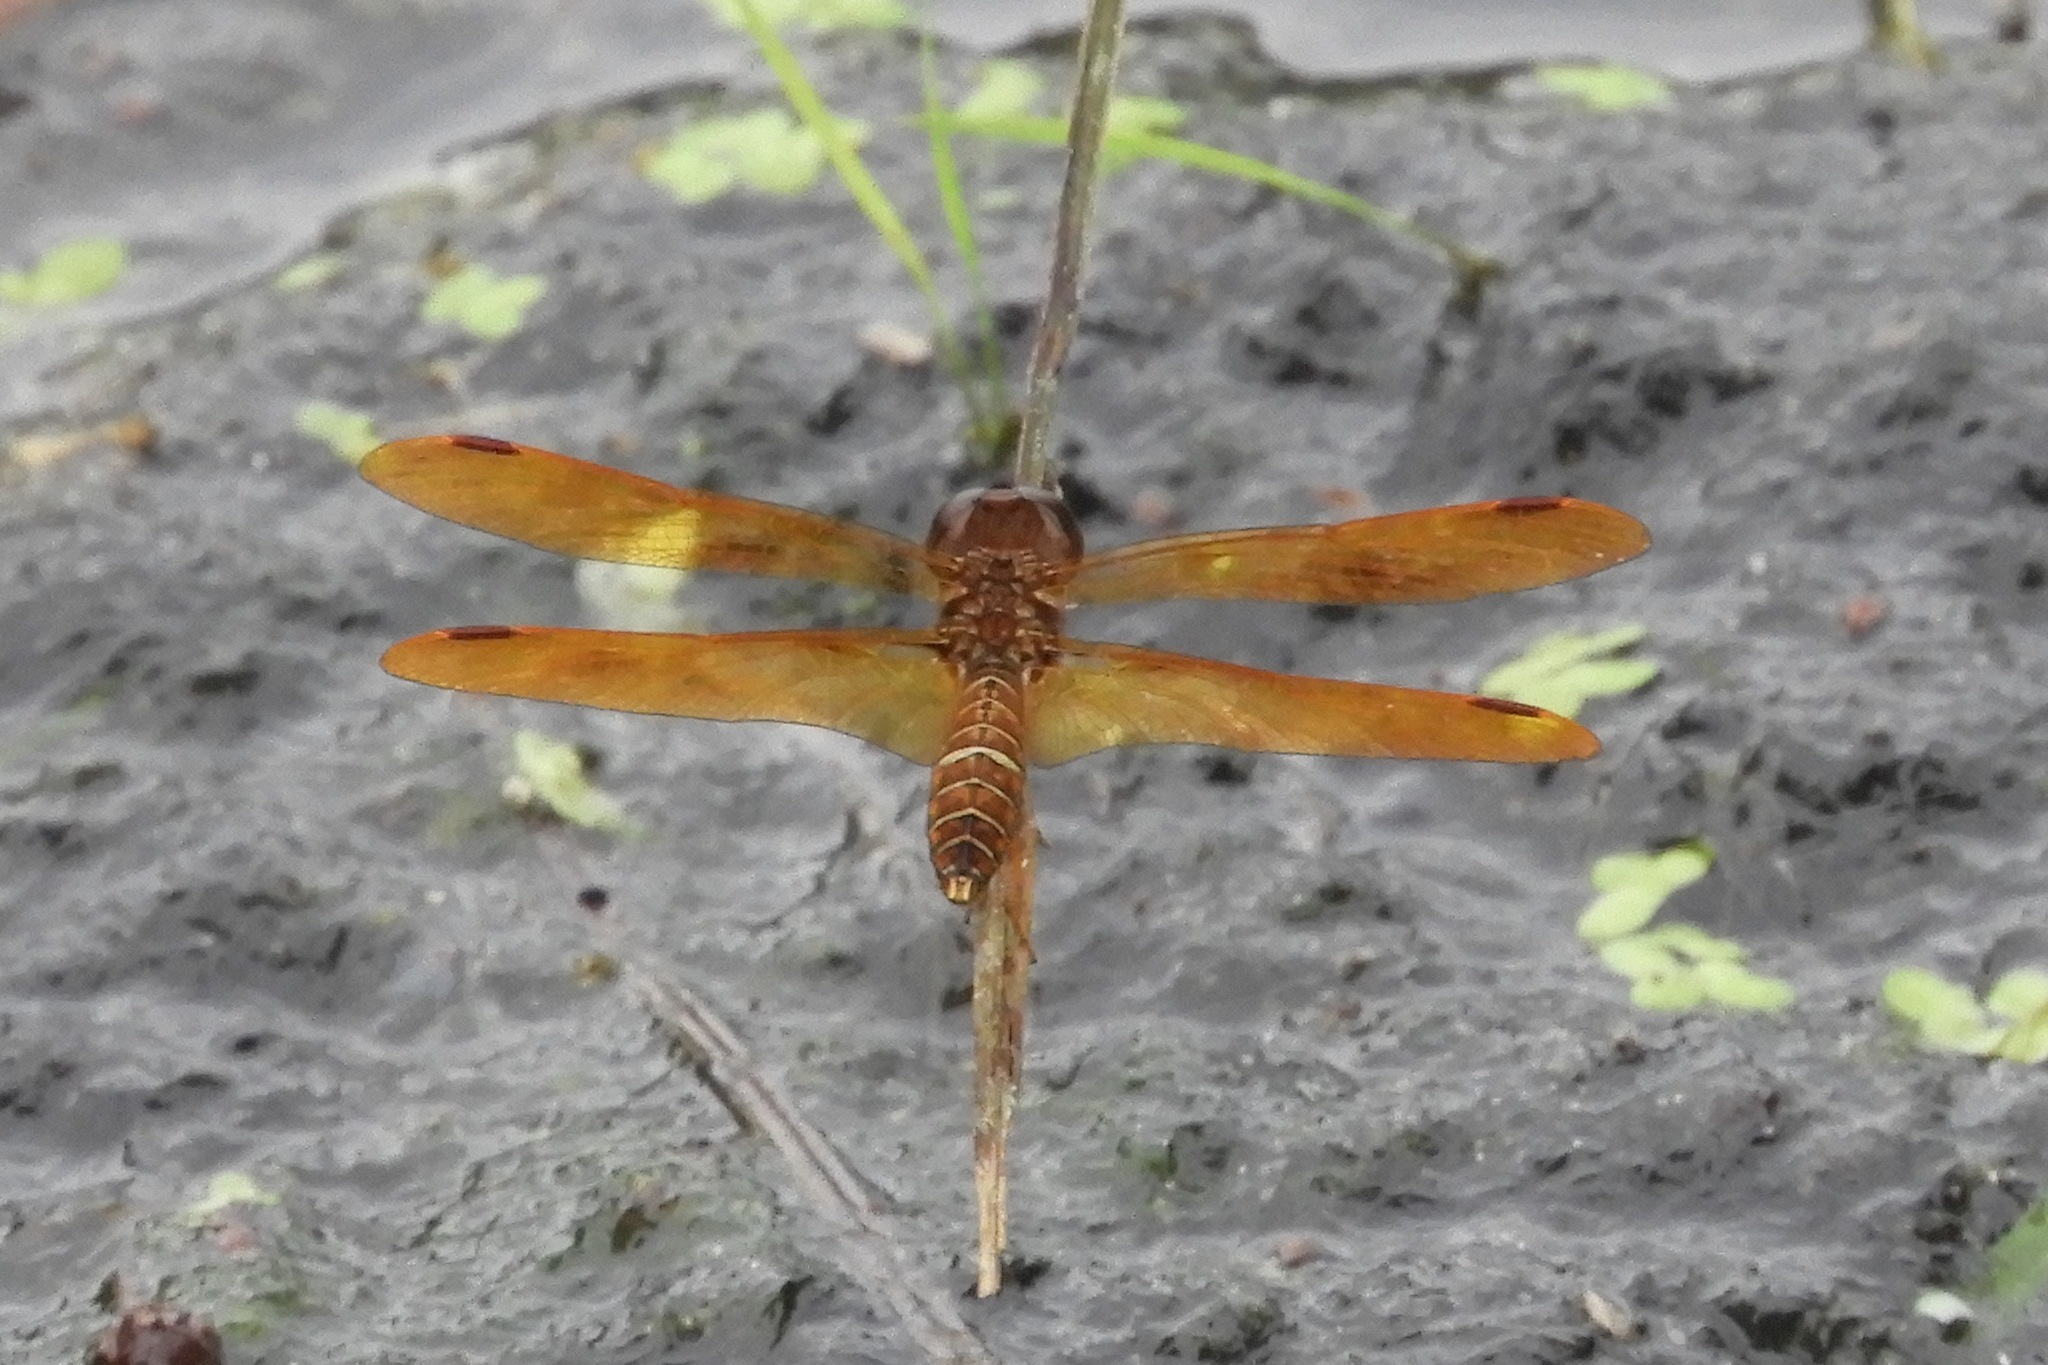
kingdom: Animalia
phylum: Arthropoda
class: Insecta
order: Odonata
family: Libellulidae
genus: Perithemis
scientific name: Perithemis tenera
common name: Eastern amberwing
